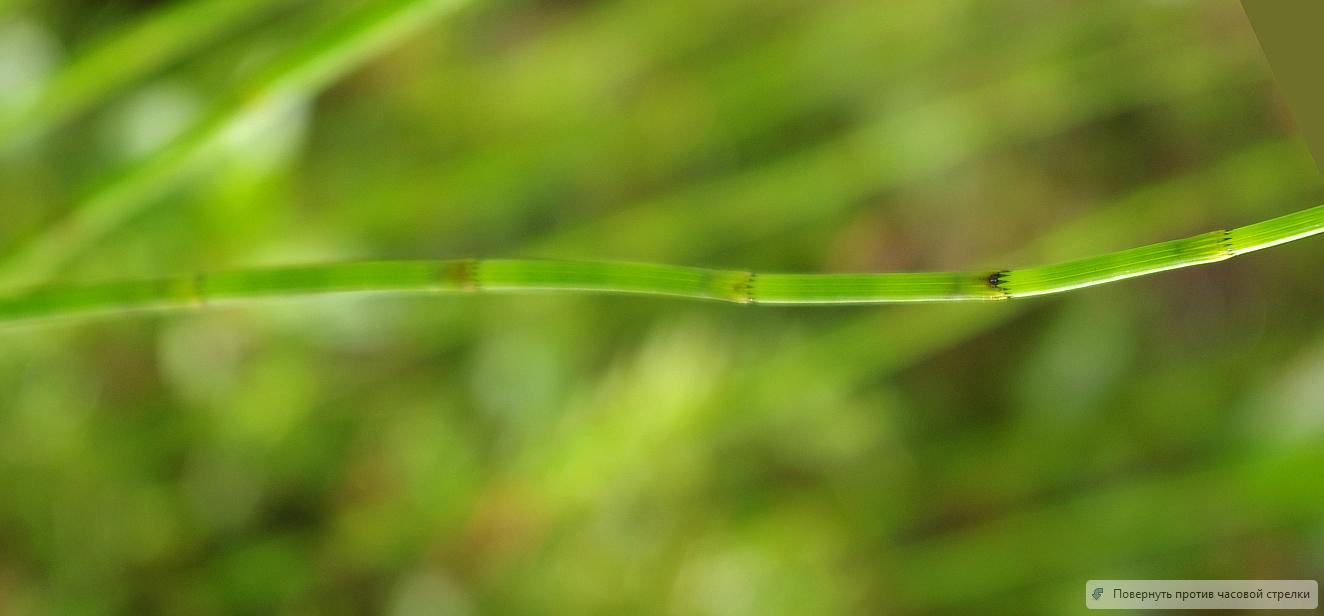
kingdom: Plantae
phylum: Tracheophyta
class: Polypodiopsida
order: Equisetales
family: Equisetaceae
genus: Equisetum
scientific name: Equisetum fluviatile
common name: Water horsetail
